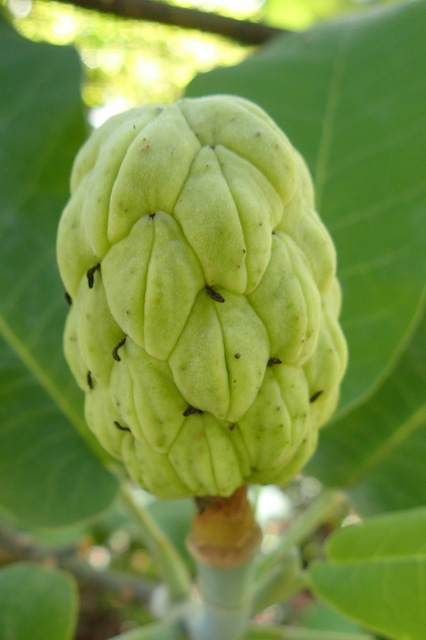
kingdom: Plantae
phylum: Tracheophyta
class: Magnoliopsida
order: Magnoliales
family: Magnoliaceae
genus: Magnolia
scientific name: Magnolia ashei
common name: Ashe's magnolia
